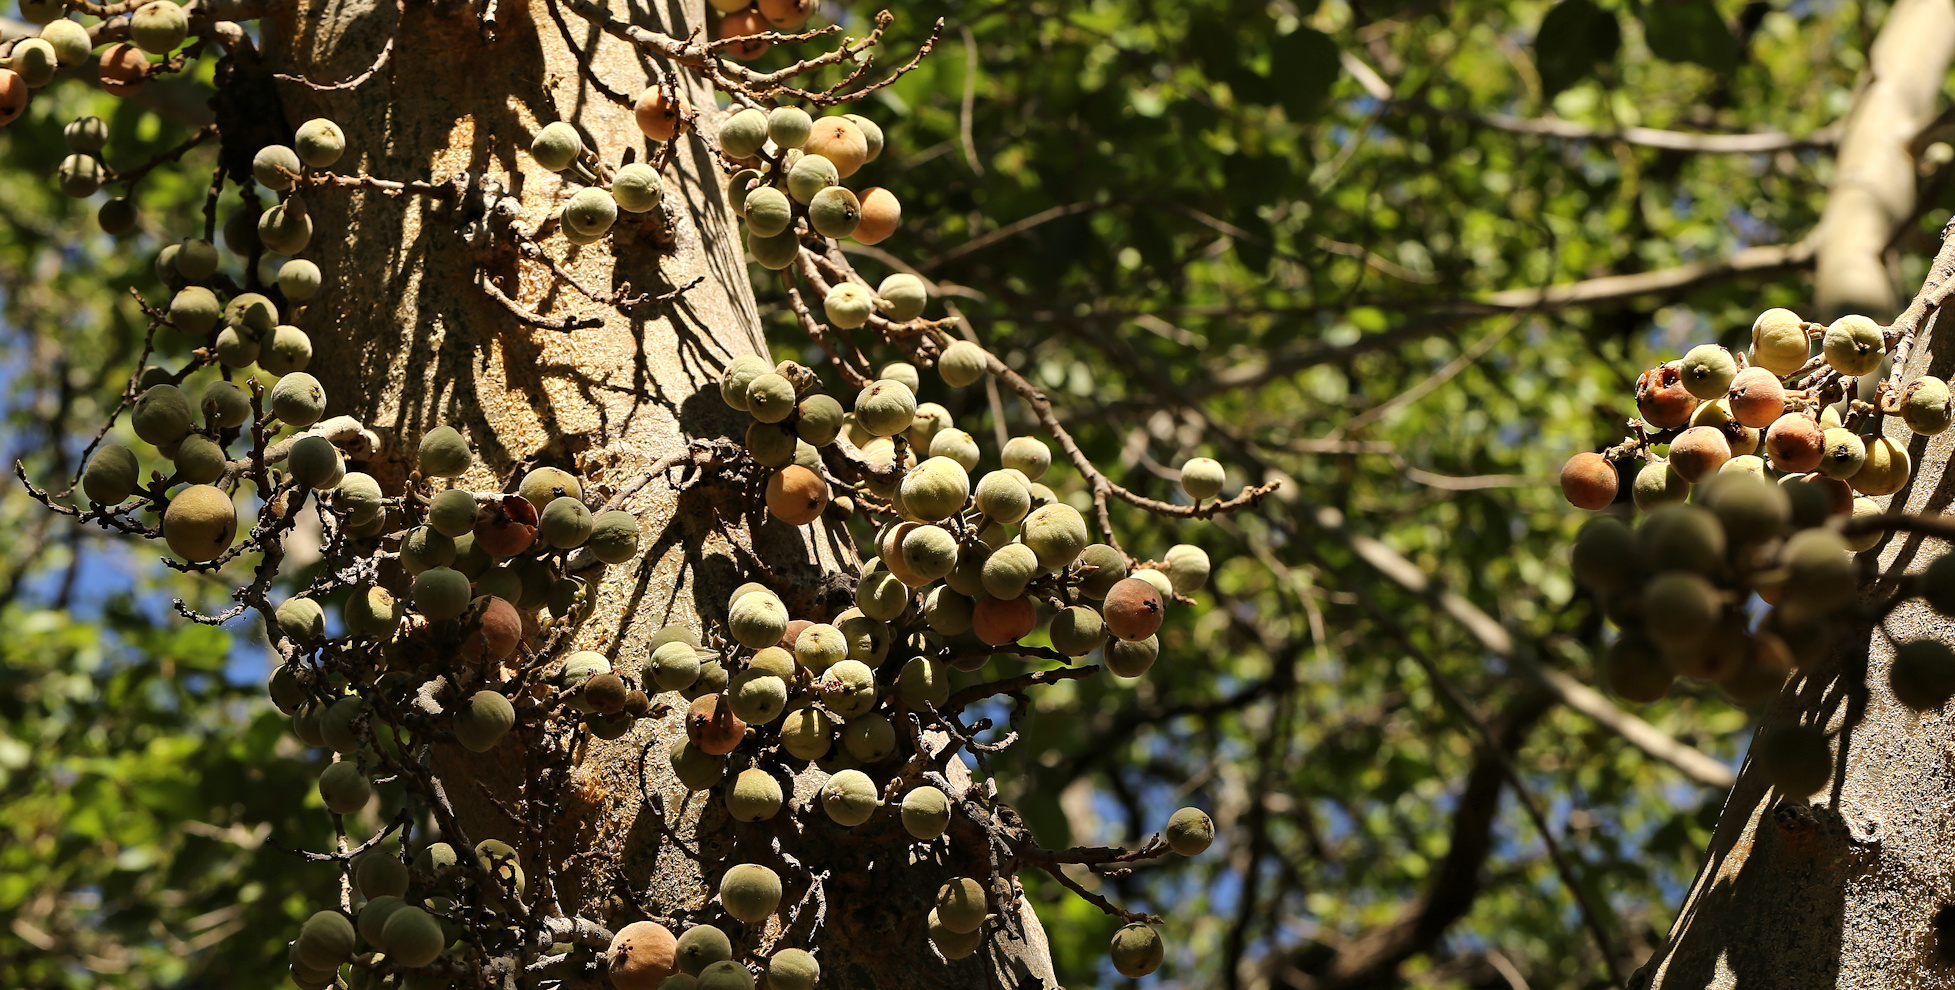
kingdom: Plantae
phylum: Tracheophyta
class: Magnoliopsida
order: Rosales
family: Moraceae
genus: Ficus
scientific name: Ficus sycomorus
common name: Sycomore
